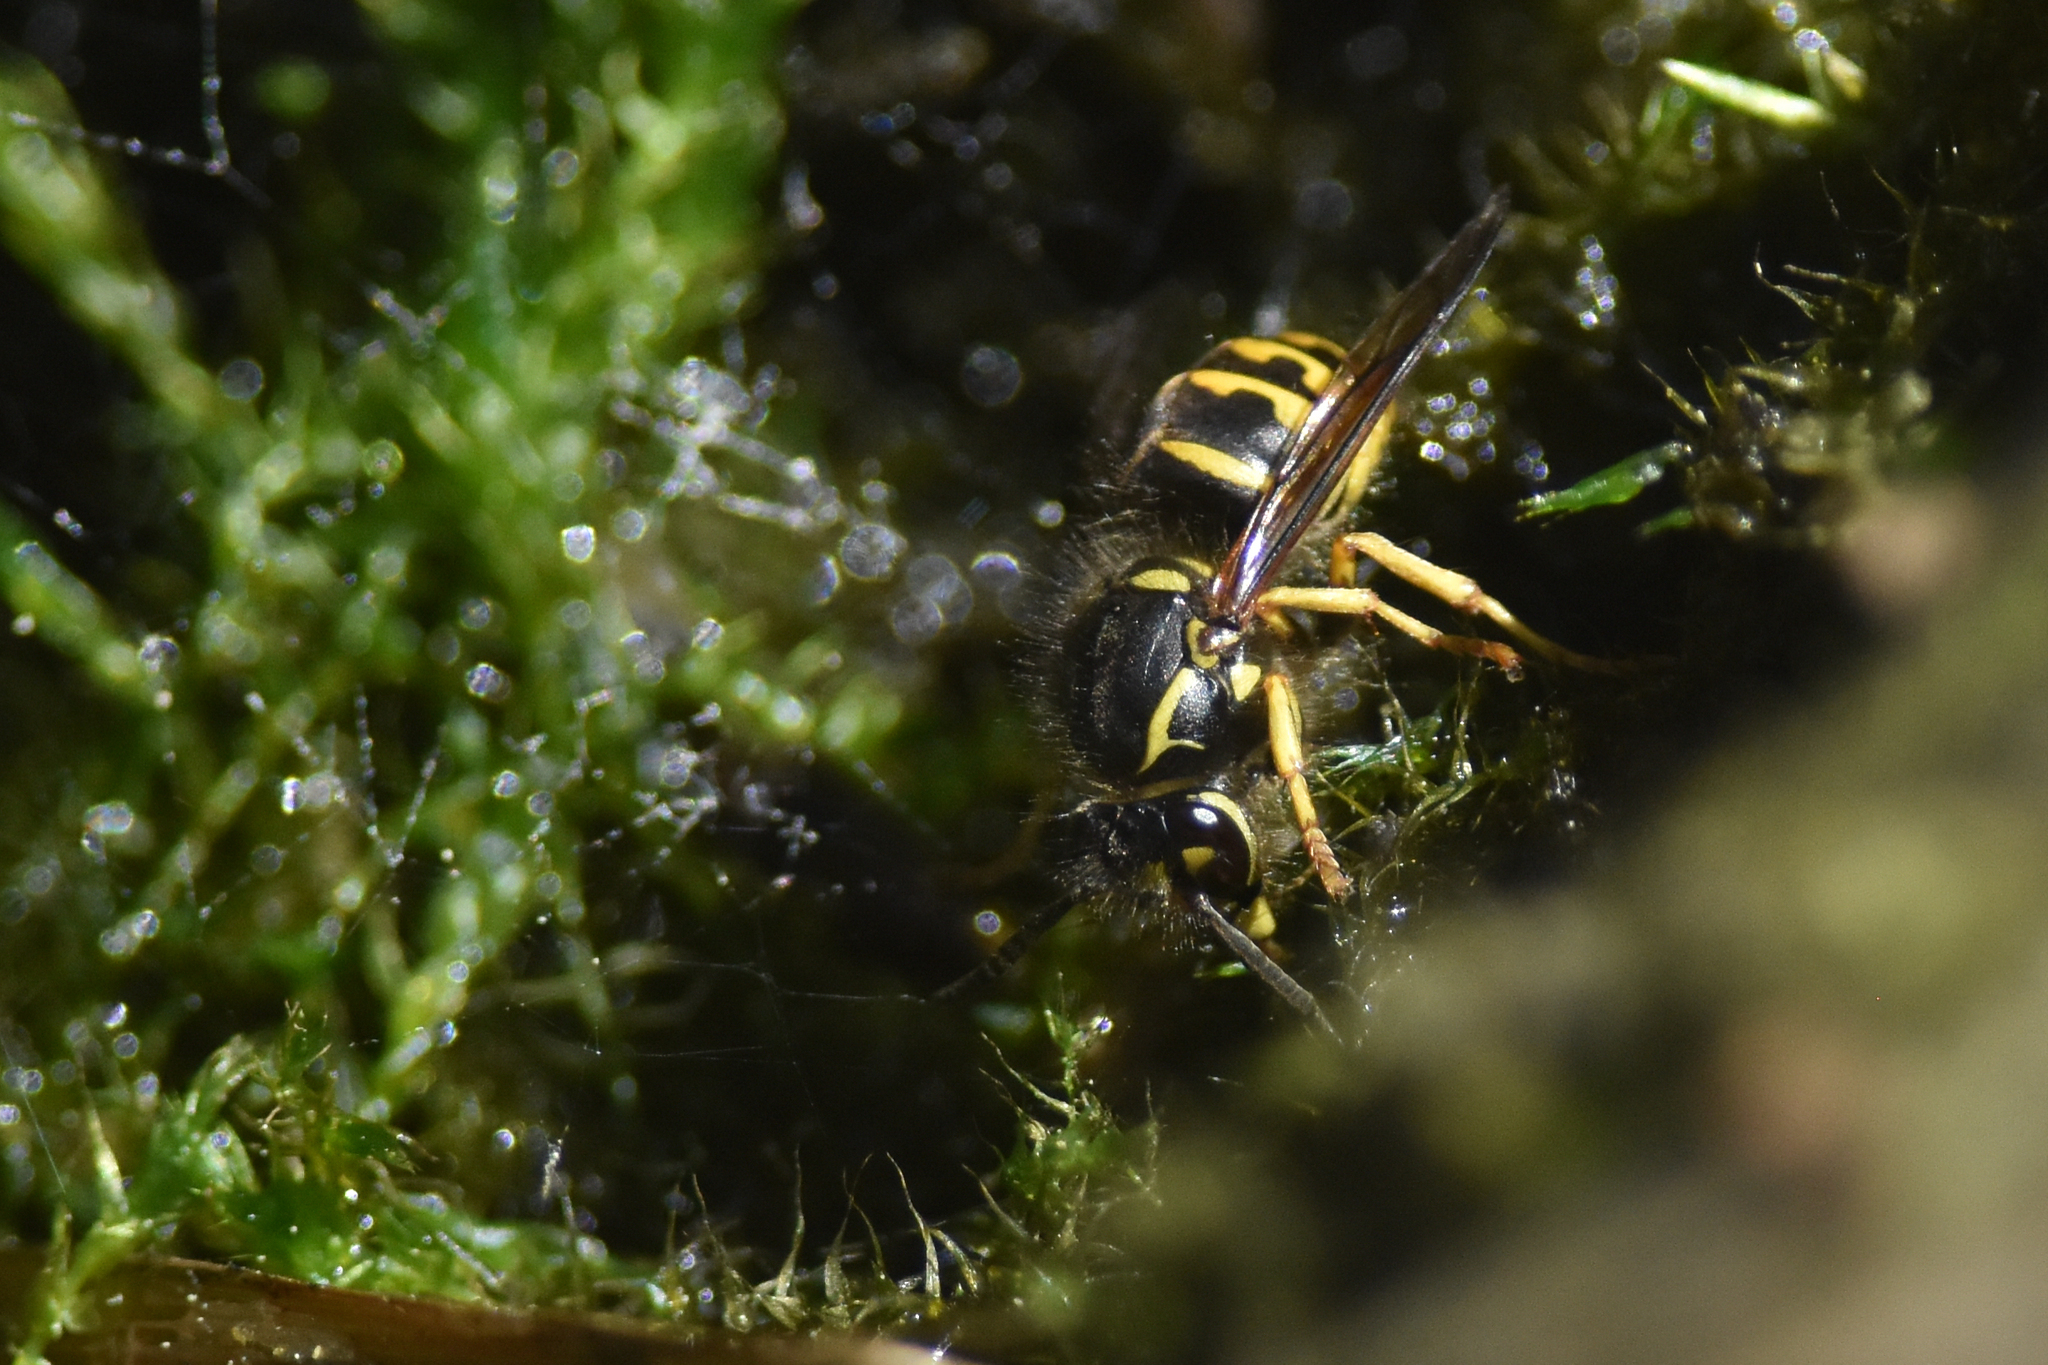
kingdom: Animalia
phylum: Arthropoda
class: Insecta
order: Hymenoptera
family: Vespidae
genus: Dolichovespula
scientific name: Dolichovespula arenaria
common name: Aerial yellowjacket
